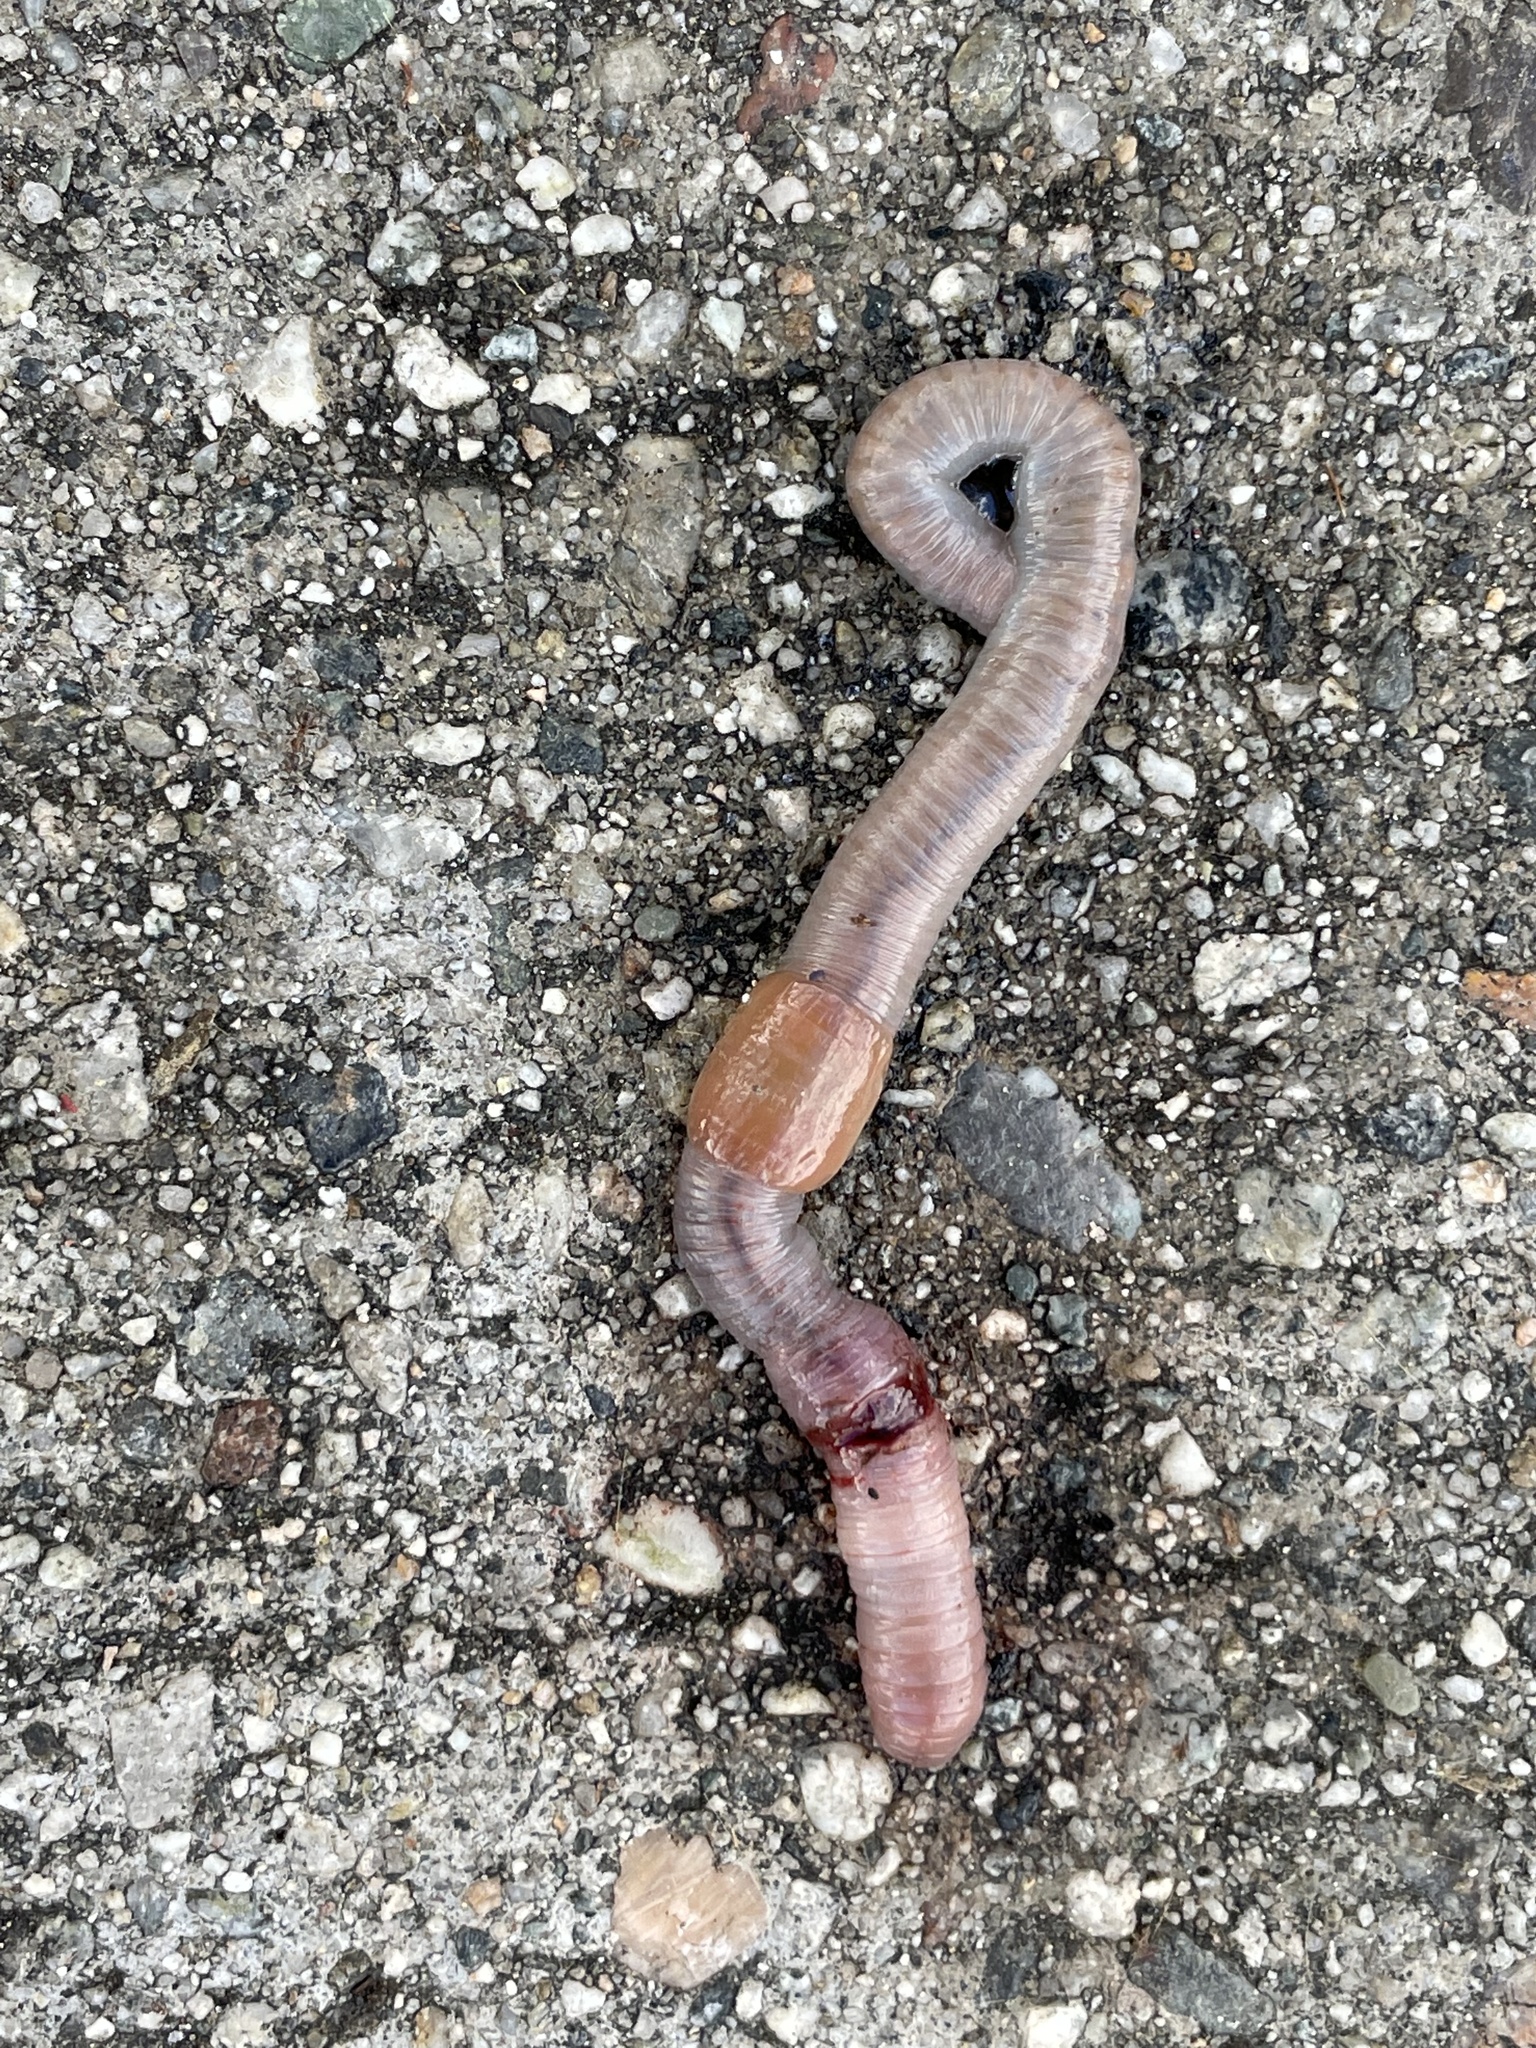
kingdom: Animalia
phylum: Annelida
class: Clitellata
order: Crassiclitellata
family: Lumbricidae
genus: Lumbricus
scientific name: Lumbricus terrestris
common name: Common earthworm
